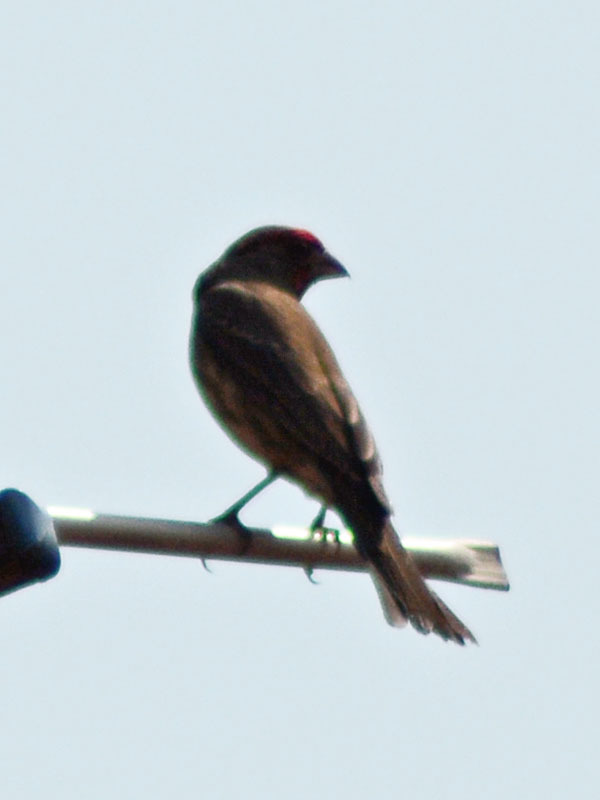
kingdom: Animalia
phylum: Chordata
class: Aves
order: Passeriformes
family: Fringillidae
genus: Haemorhous
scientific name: Haemorhous mexicanus
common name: House finch
